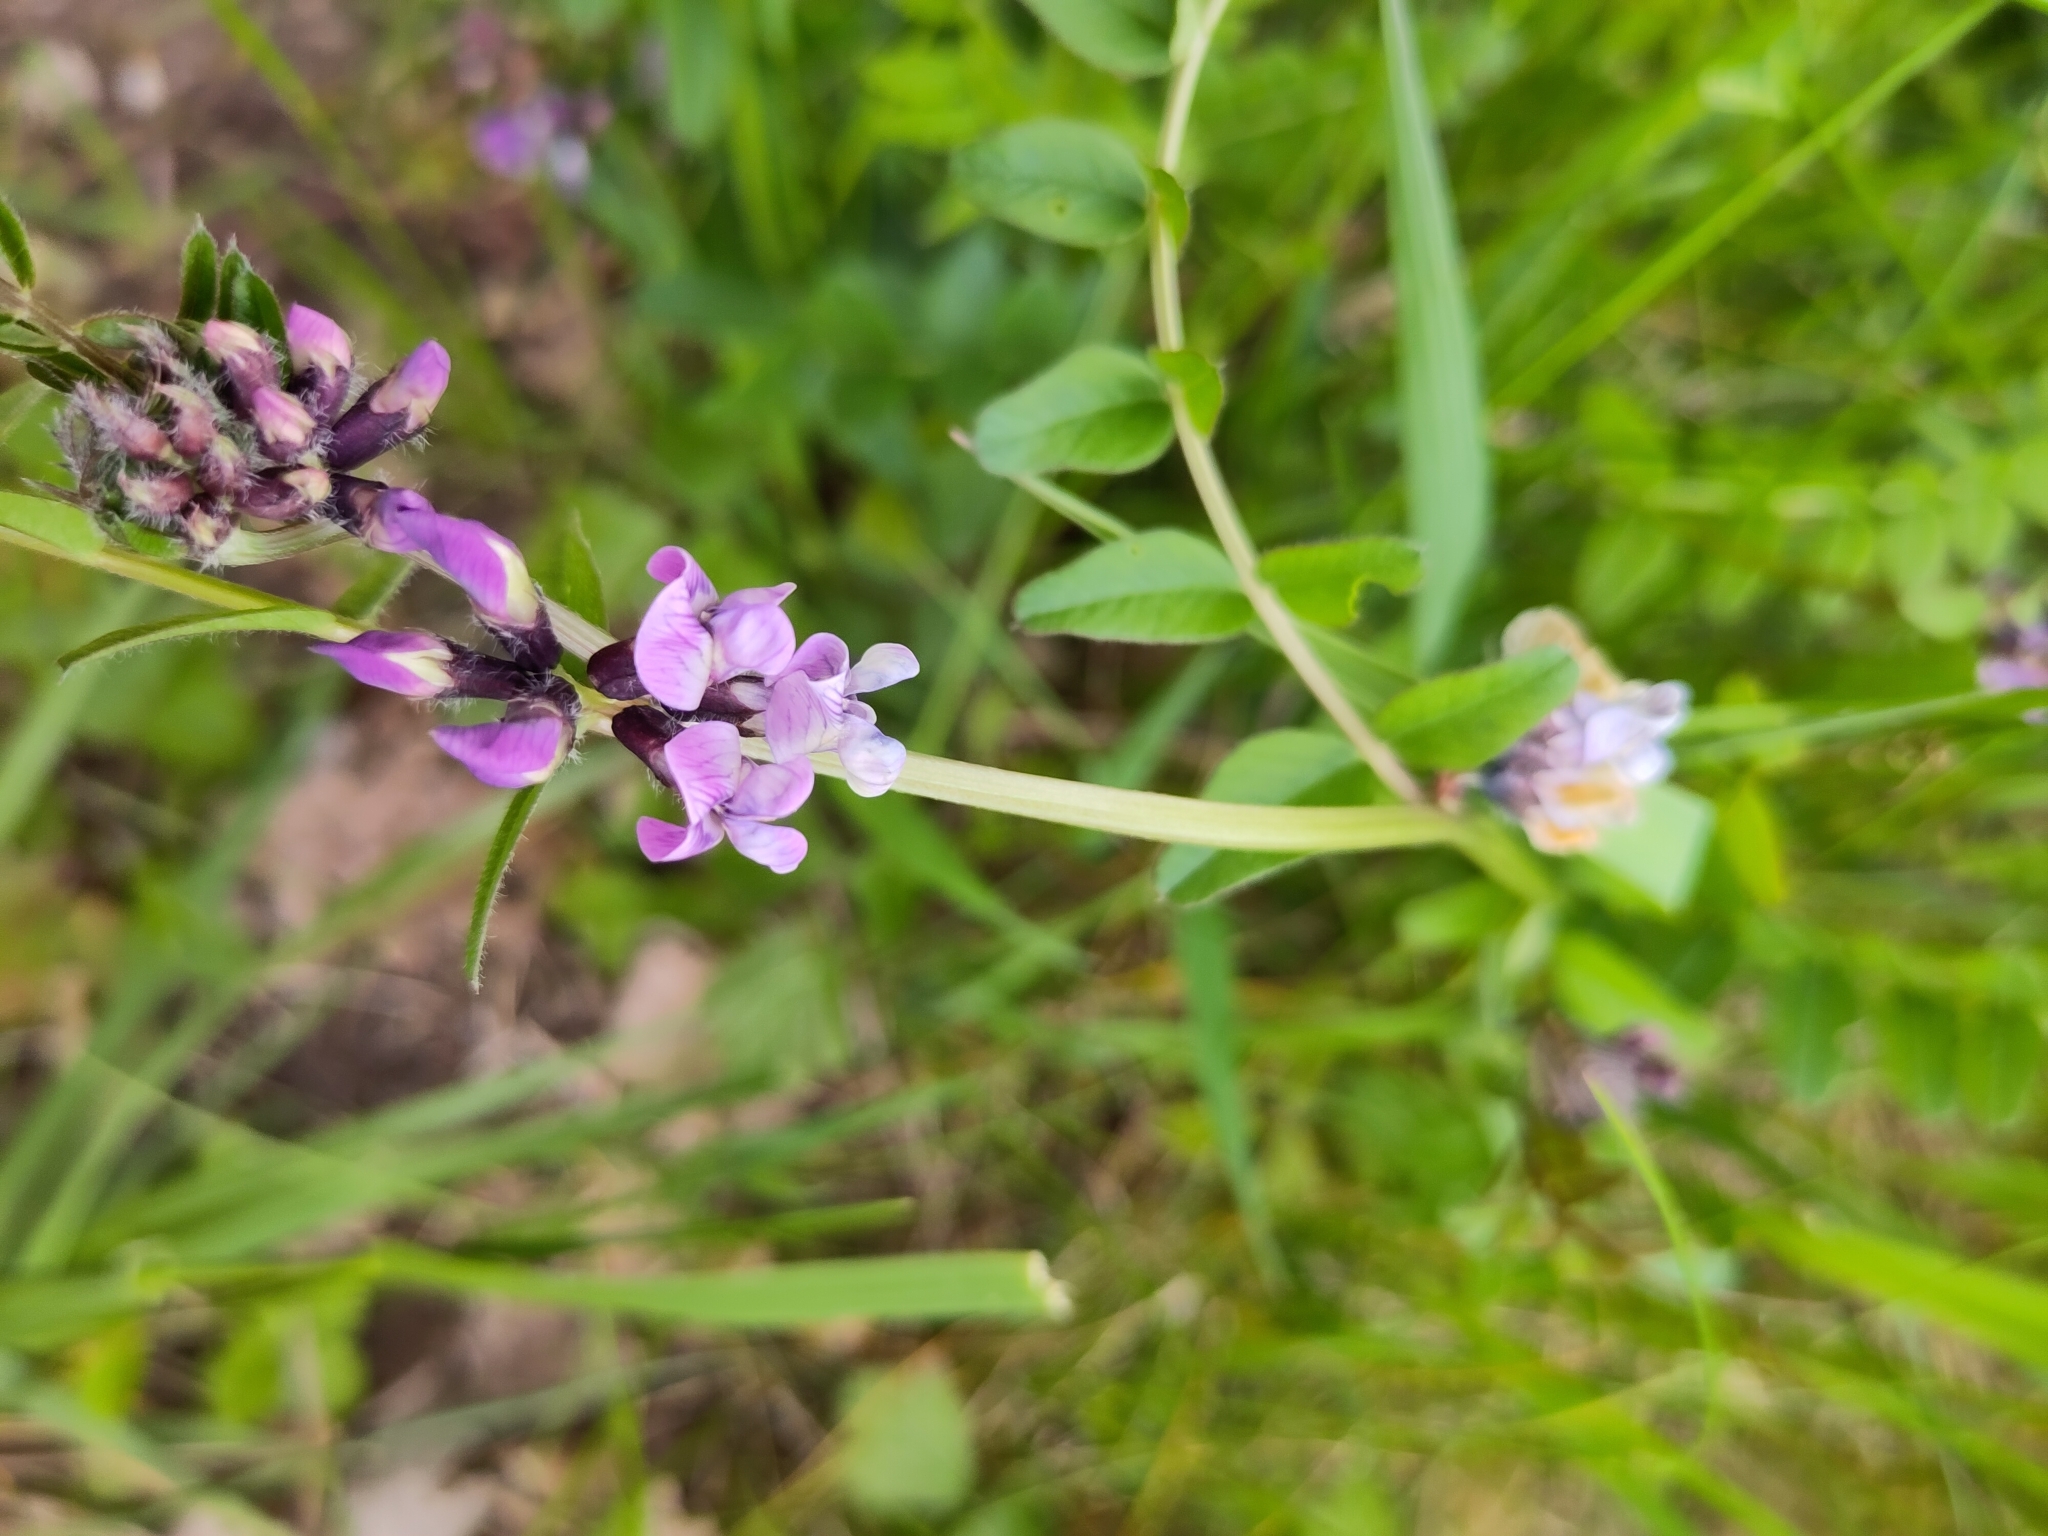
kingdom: Plantae
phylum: Tracheophyta
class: Magnoliopsida
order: Fabales
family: Fabaceae
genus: Vicia
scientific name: Vicia sepium
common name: Bush vetch
